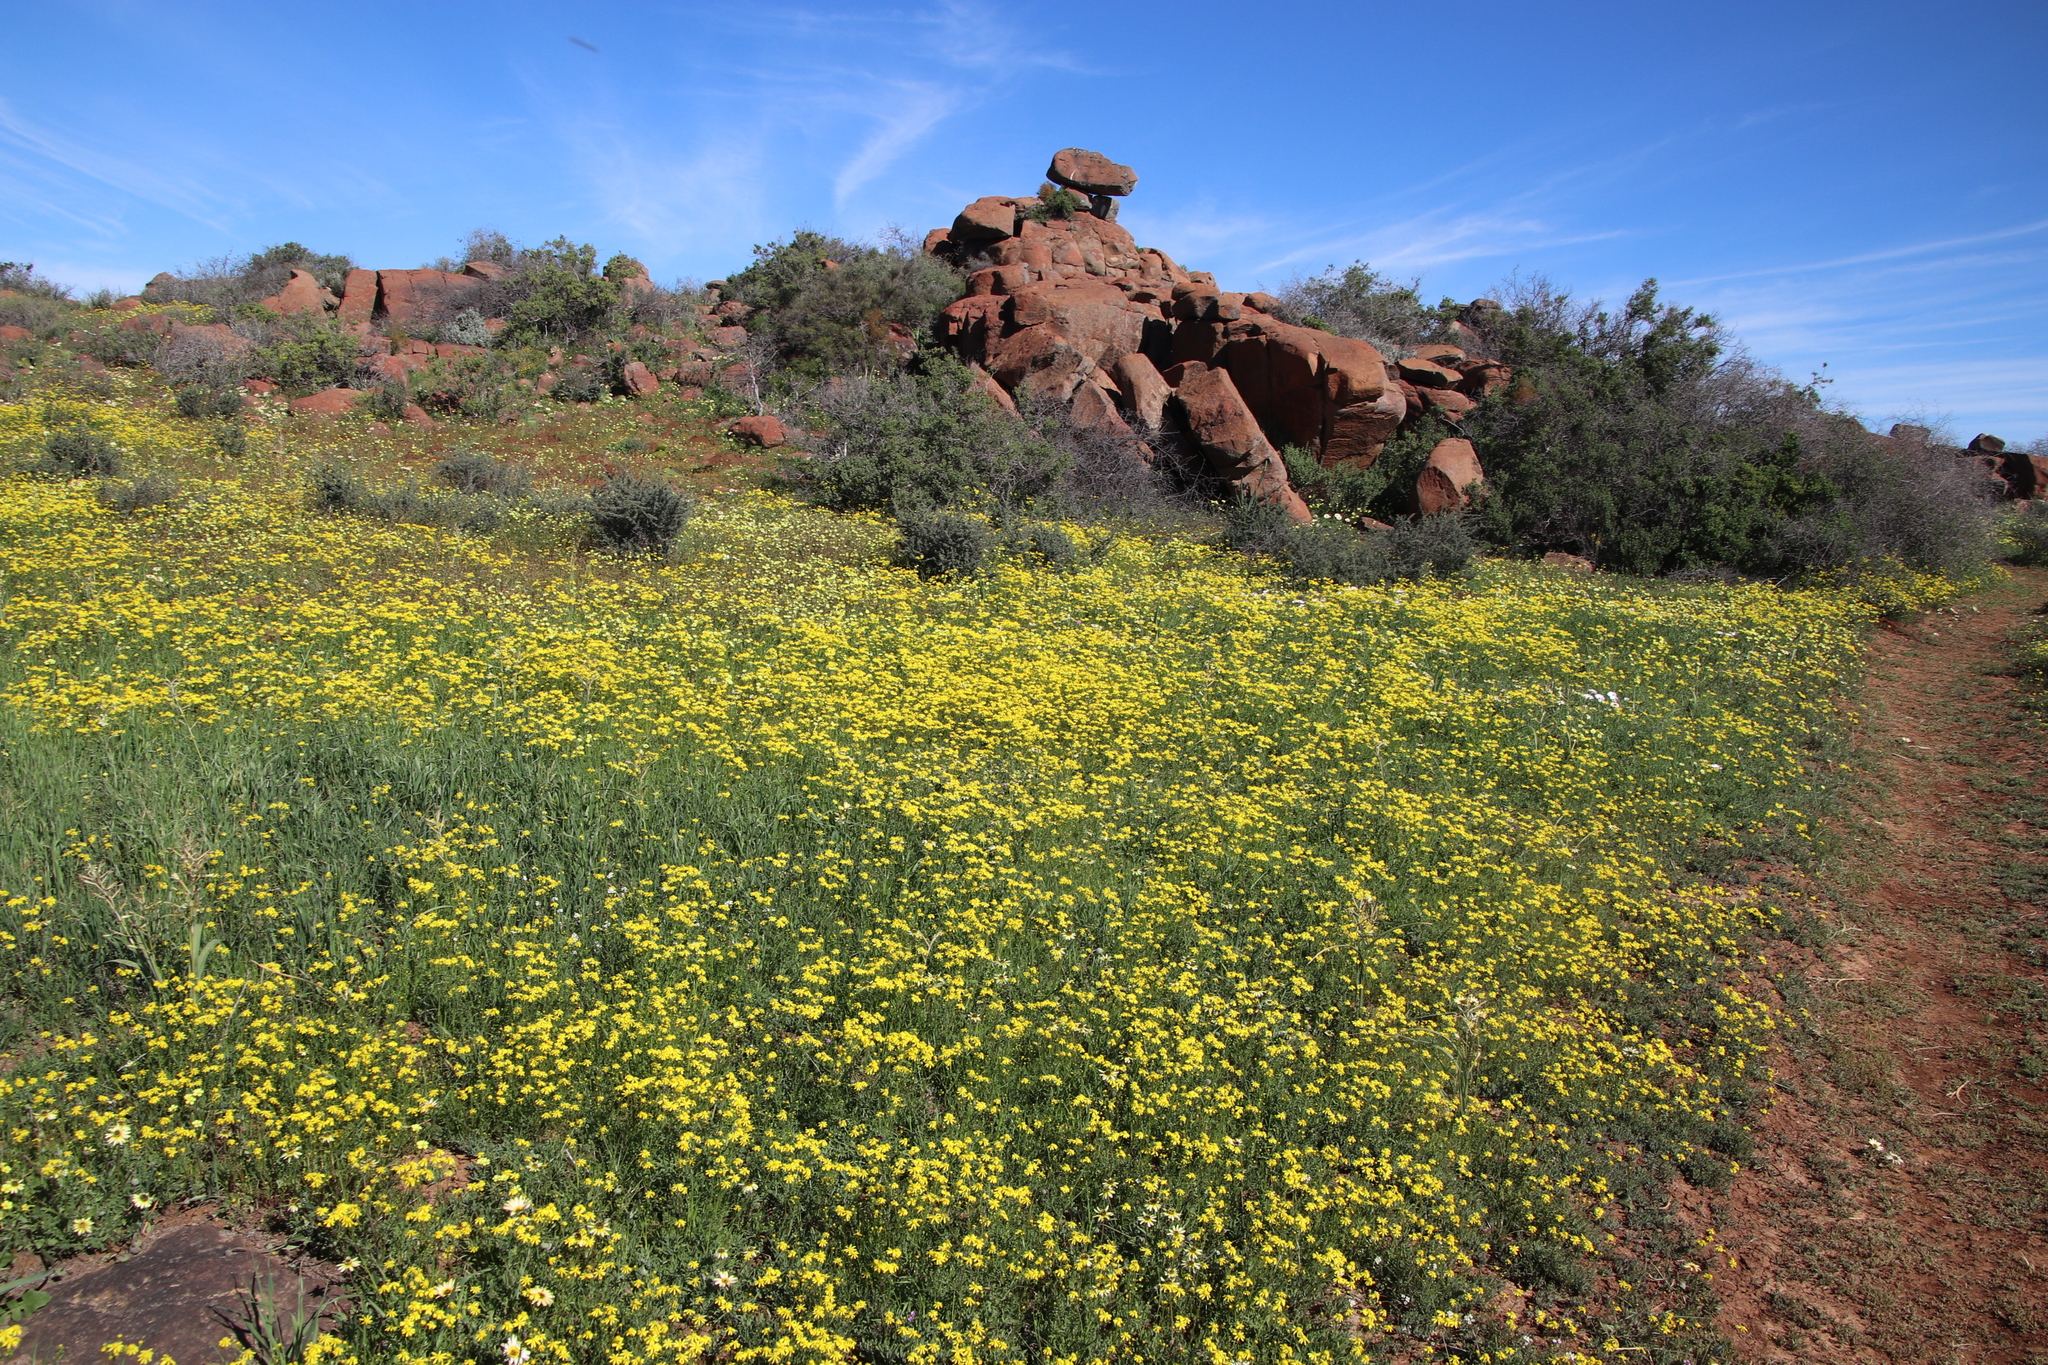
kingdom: Plantae
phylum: Tracheophyta
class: Magnoliopsida
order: Asterales
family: Asteraceae
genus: Senecio
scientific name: Senecio abruptus
